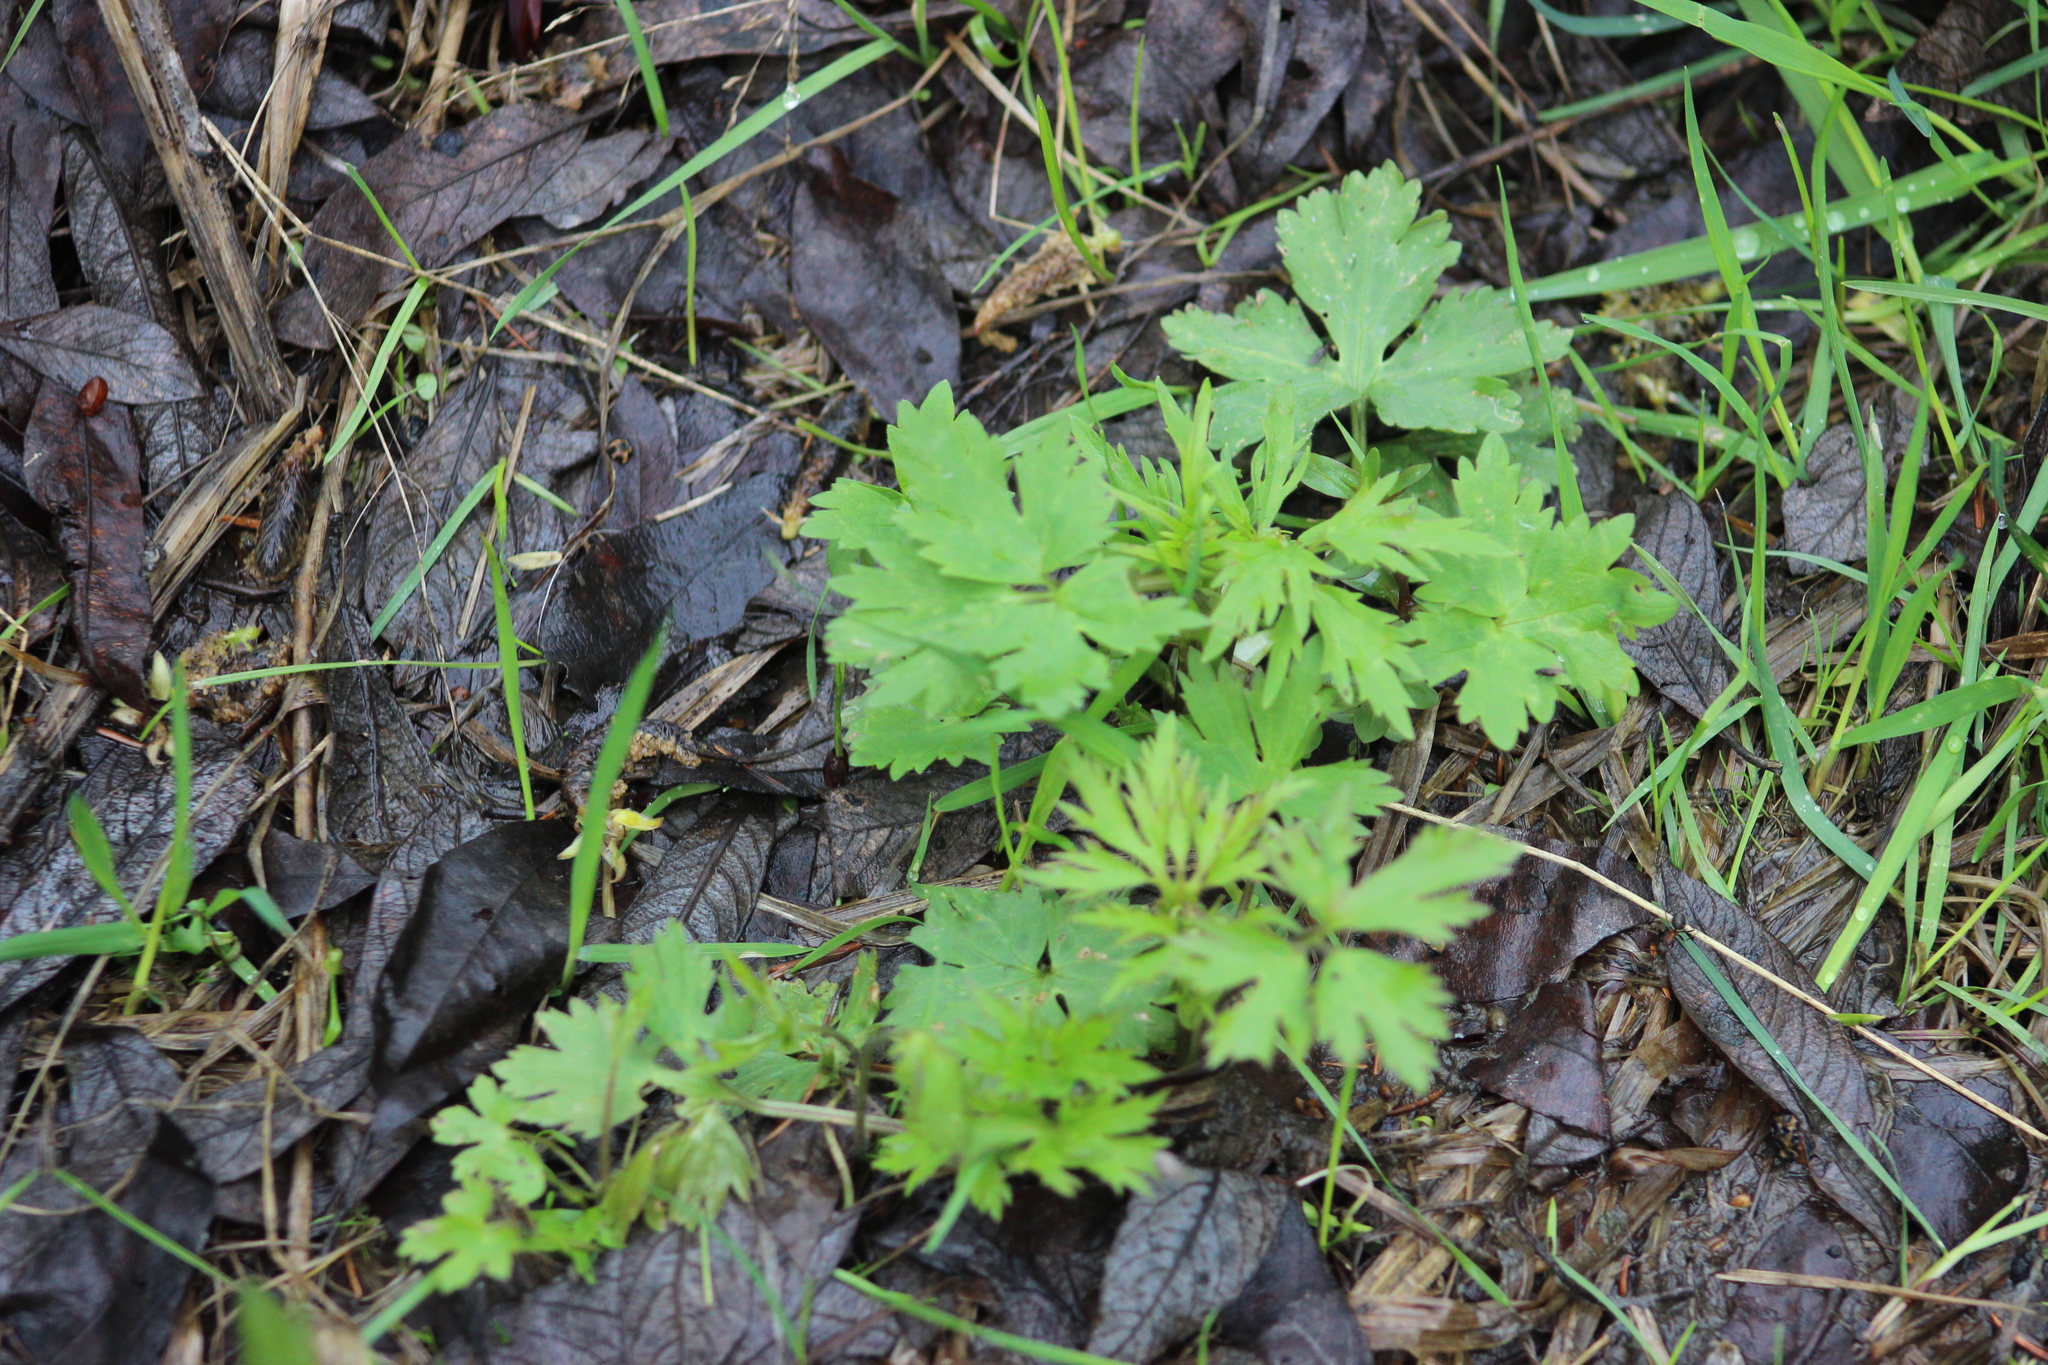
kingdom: Plantae
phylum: Tracheophyta
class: Magnoliopsida
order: Ranunculales
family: Ranunculaceae
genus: Ranunculus
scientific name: Ranunculus repens
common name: Creeping buttercup
